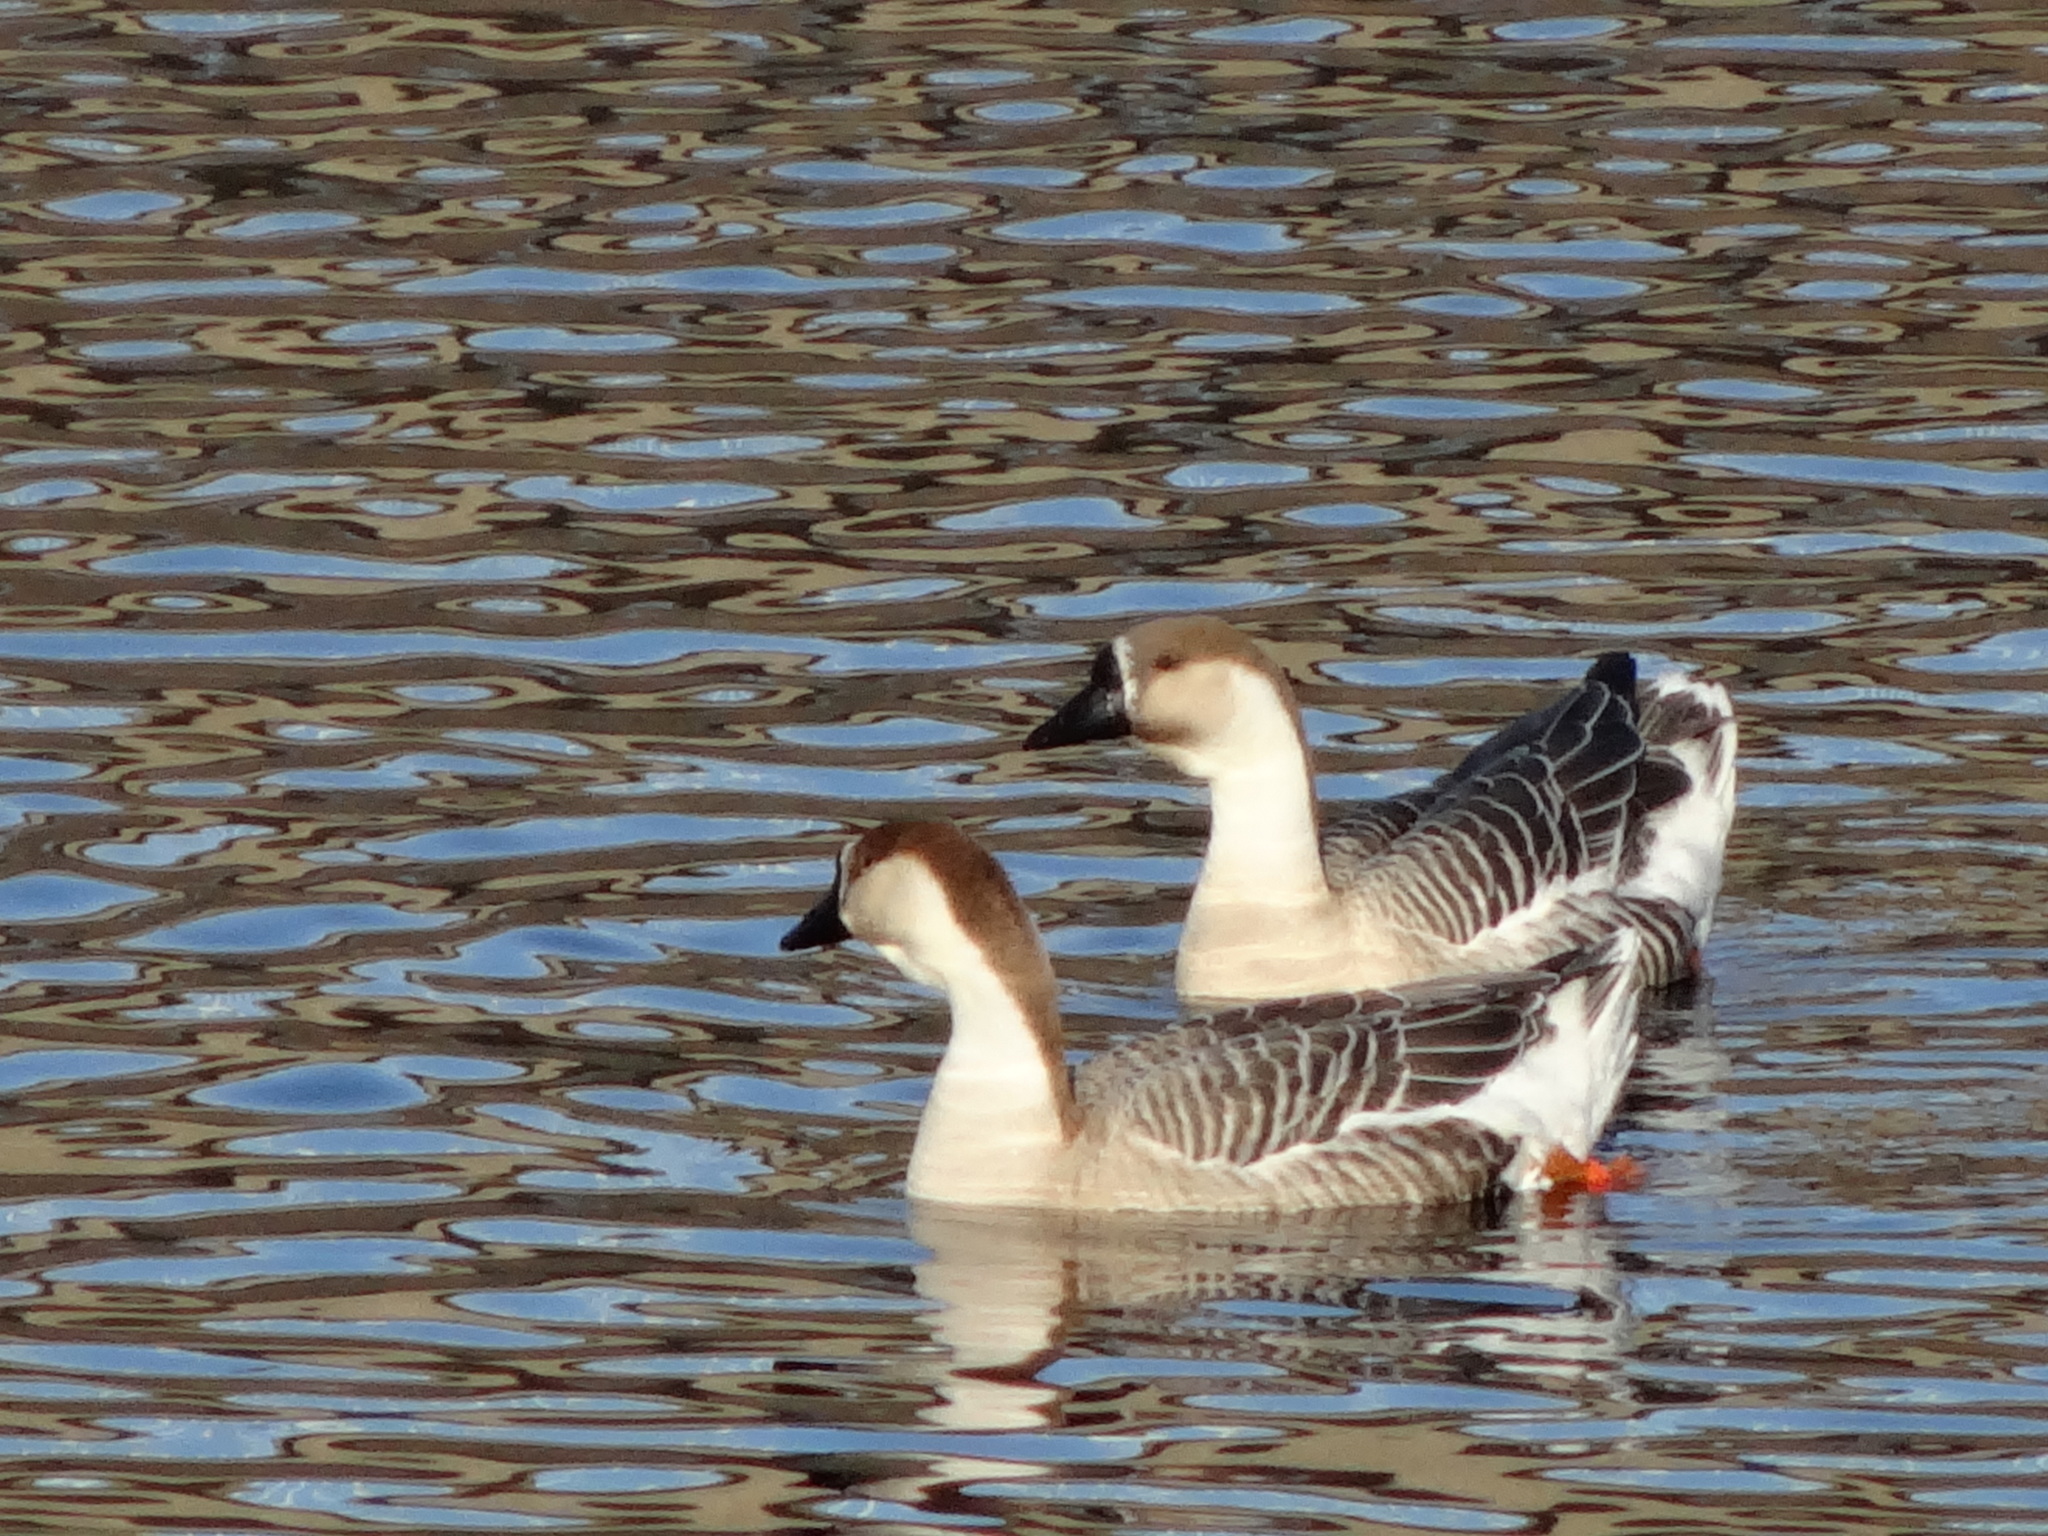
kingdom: Animalia
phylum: Chordata
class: Aves
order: Anseriformes
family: Anatidae
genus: Anser
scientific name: Anser cygnoides
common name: Swan goose
